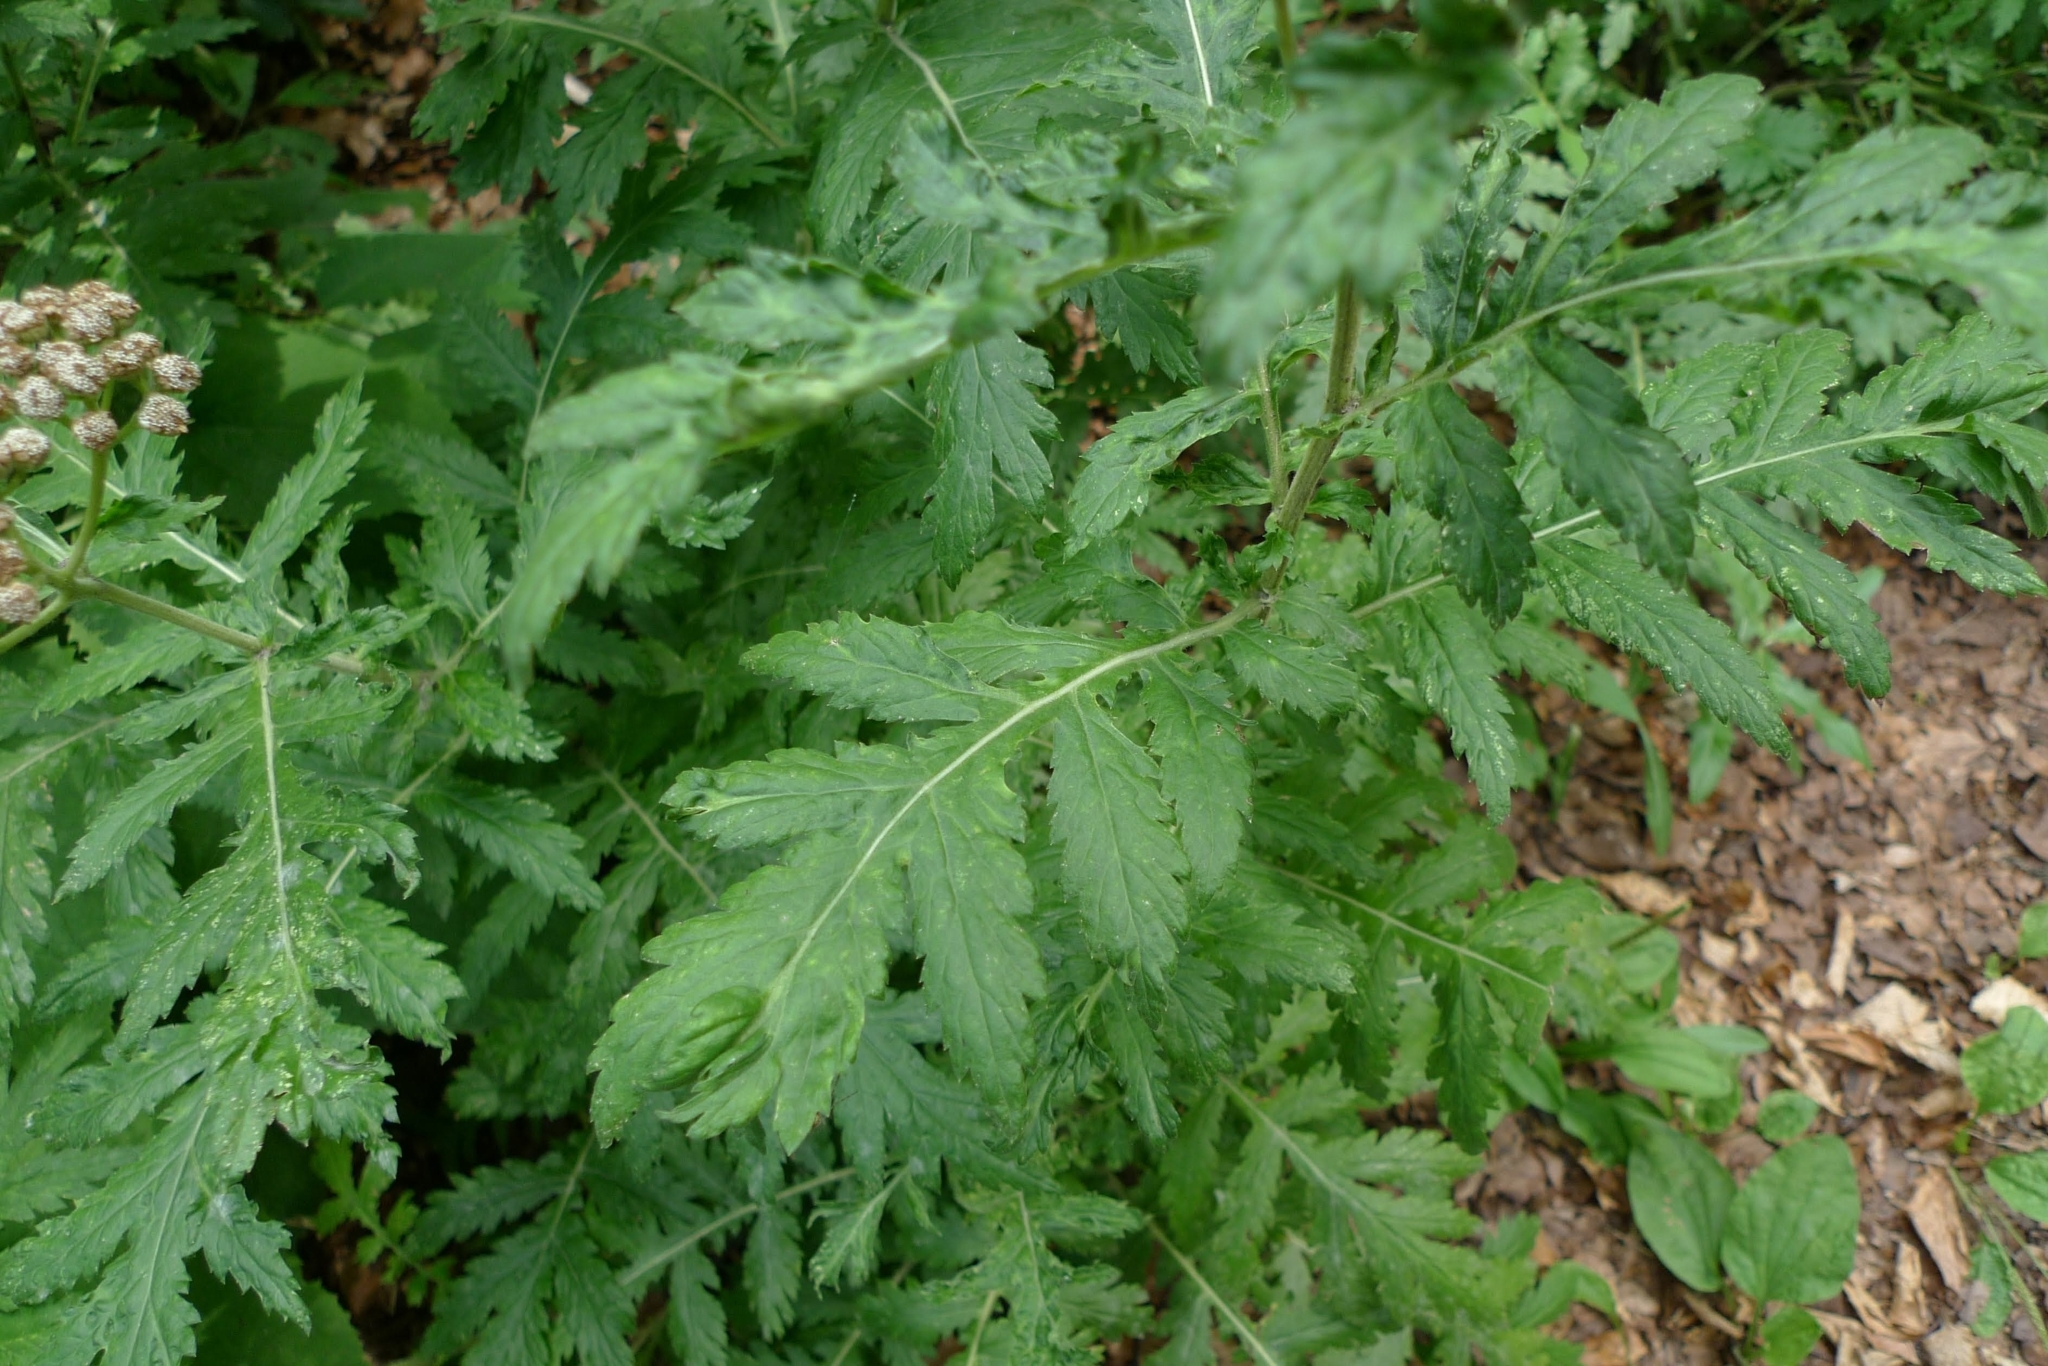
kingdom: Plantae
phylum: Tracheophyta
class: Magnoliopsida
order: Asterales
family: Asteraceae
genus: Tanacetum
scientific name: Tanacetum macrophyllum
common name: Rayed tansy
